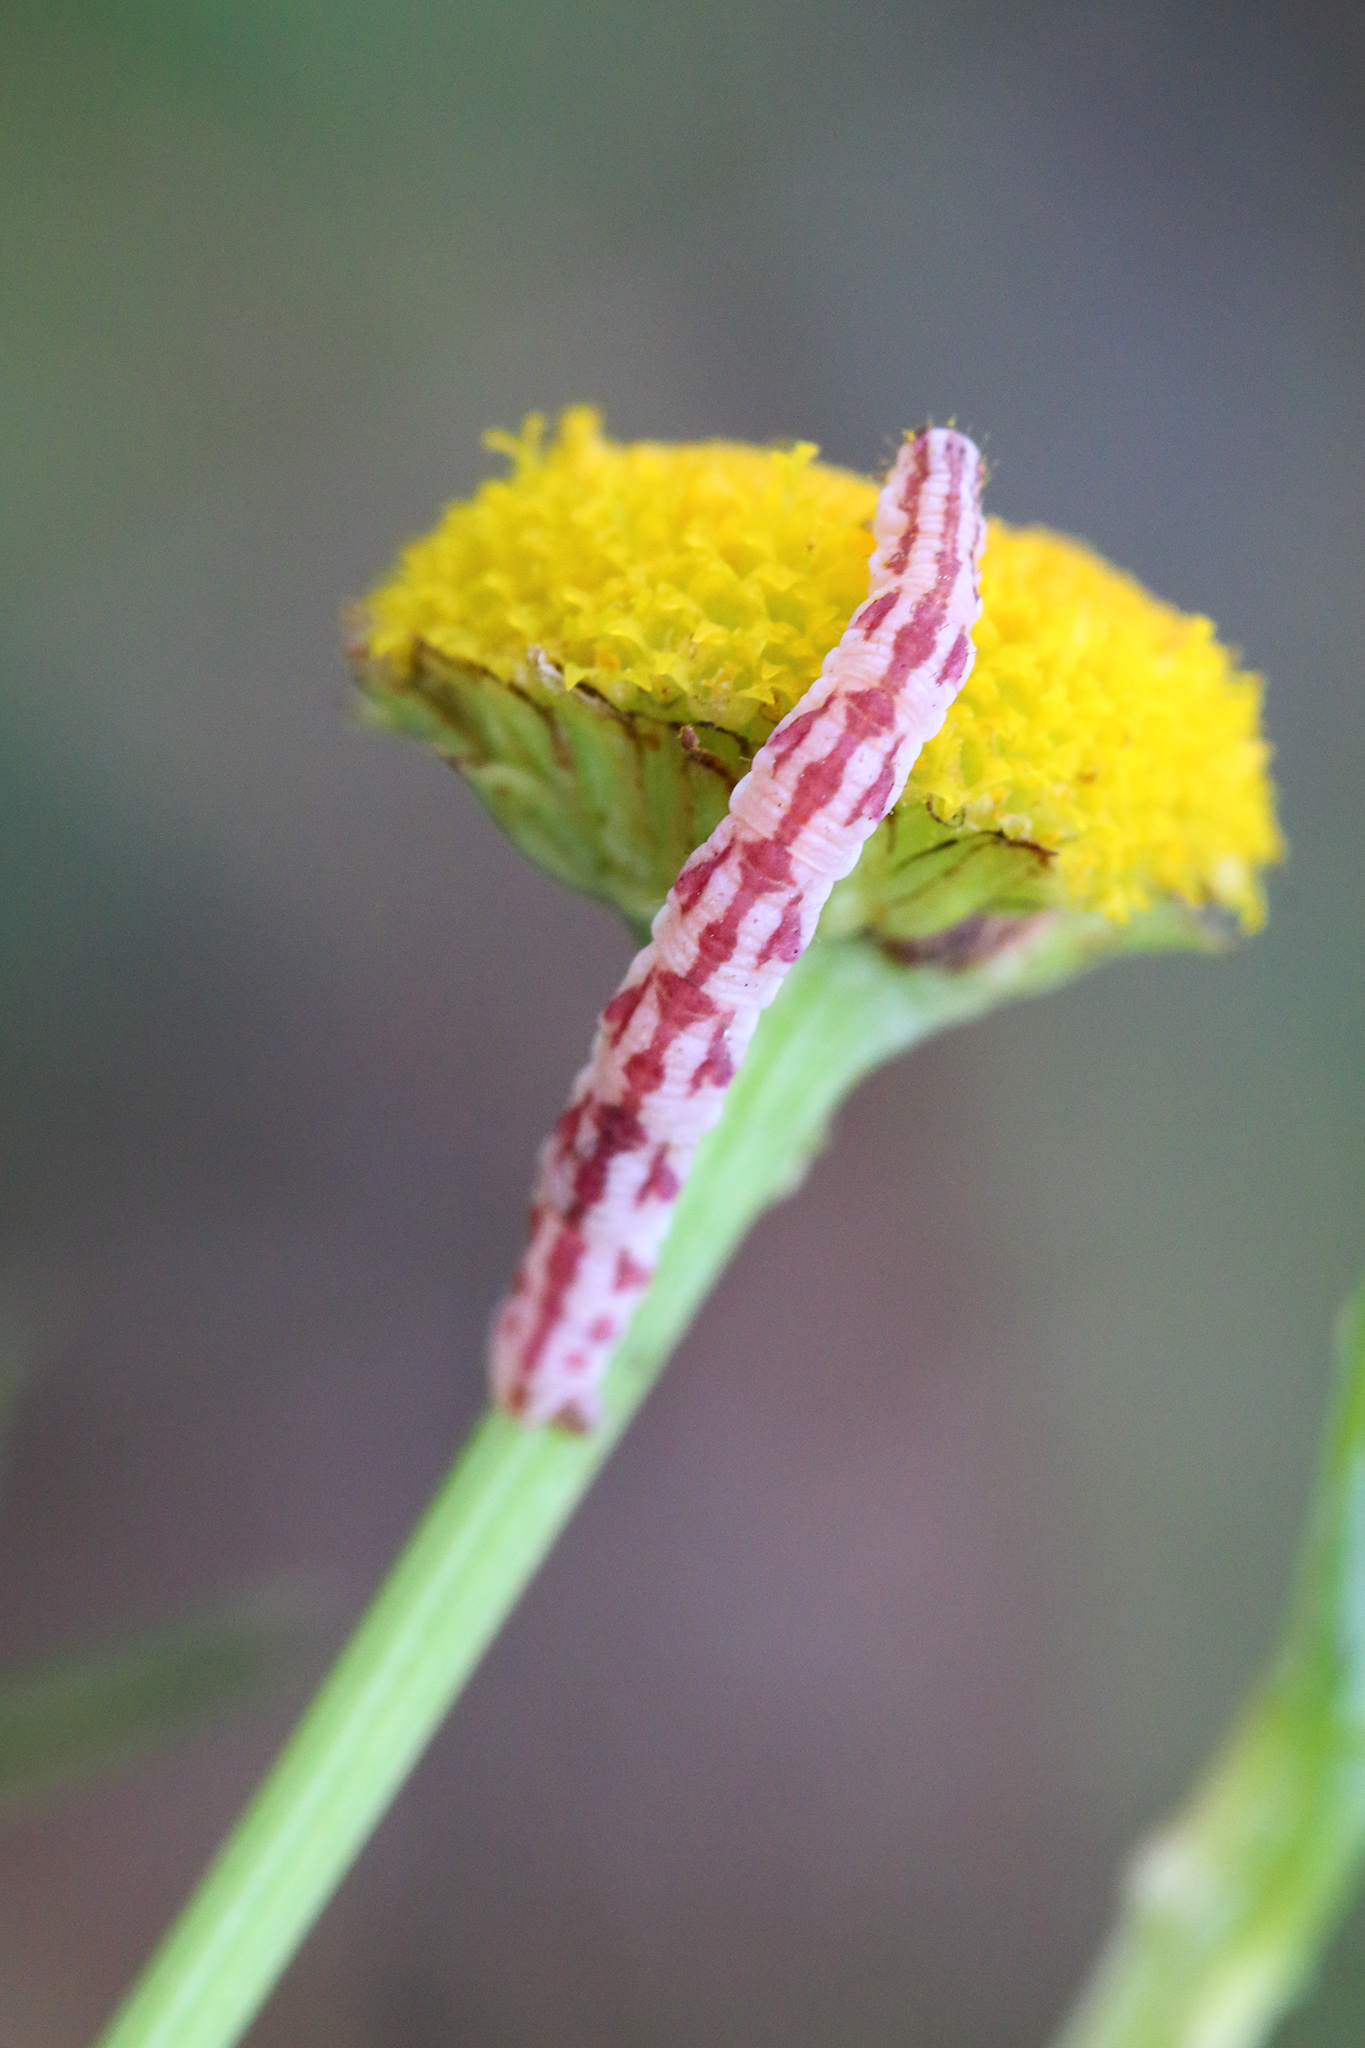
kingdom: Animalia
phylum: Arthropoda
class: Insecta
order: Lepidoptera
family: Geometridae
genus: Eupithecia
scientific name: Eupithecia centaureata
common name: Lime-speck pug
